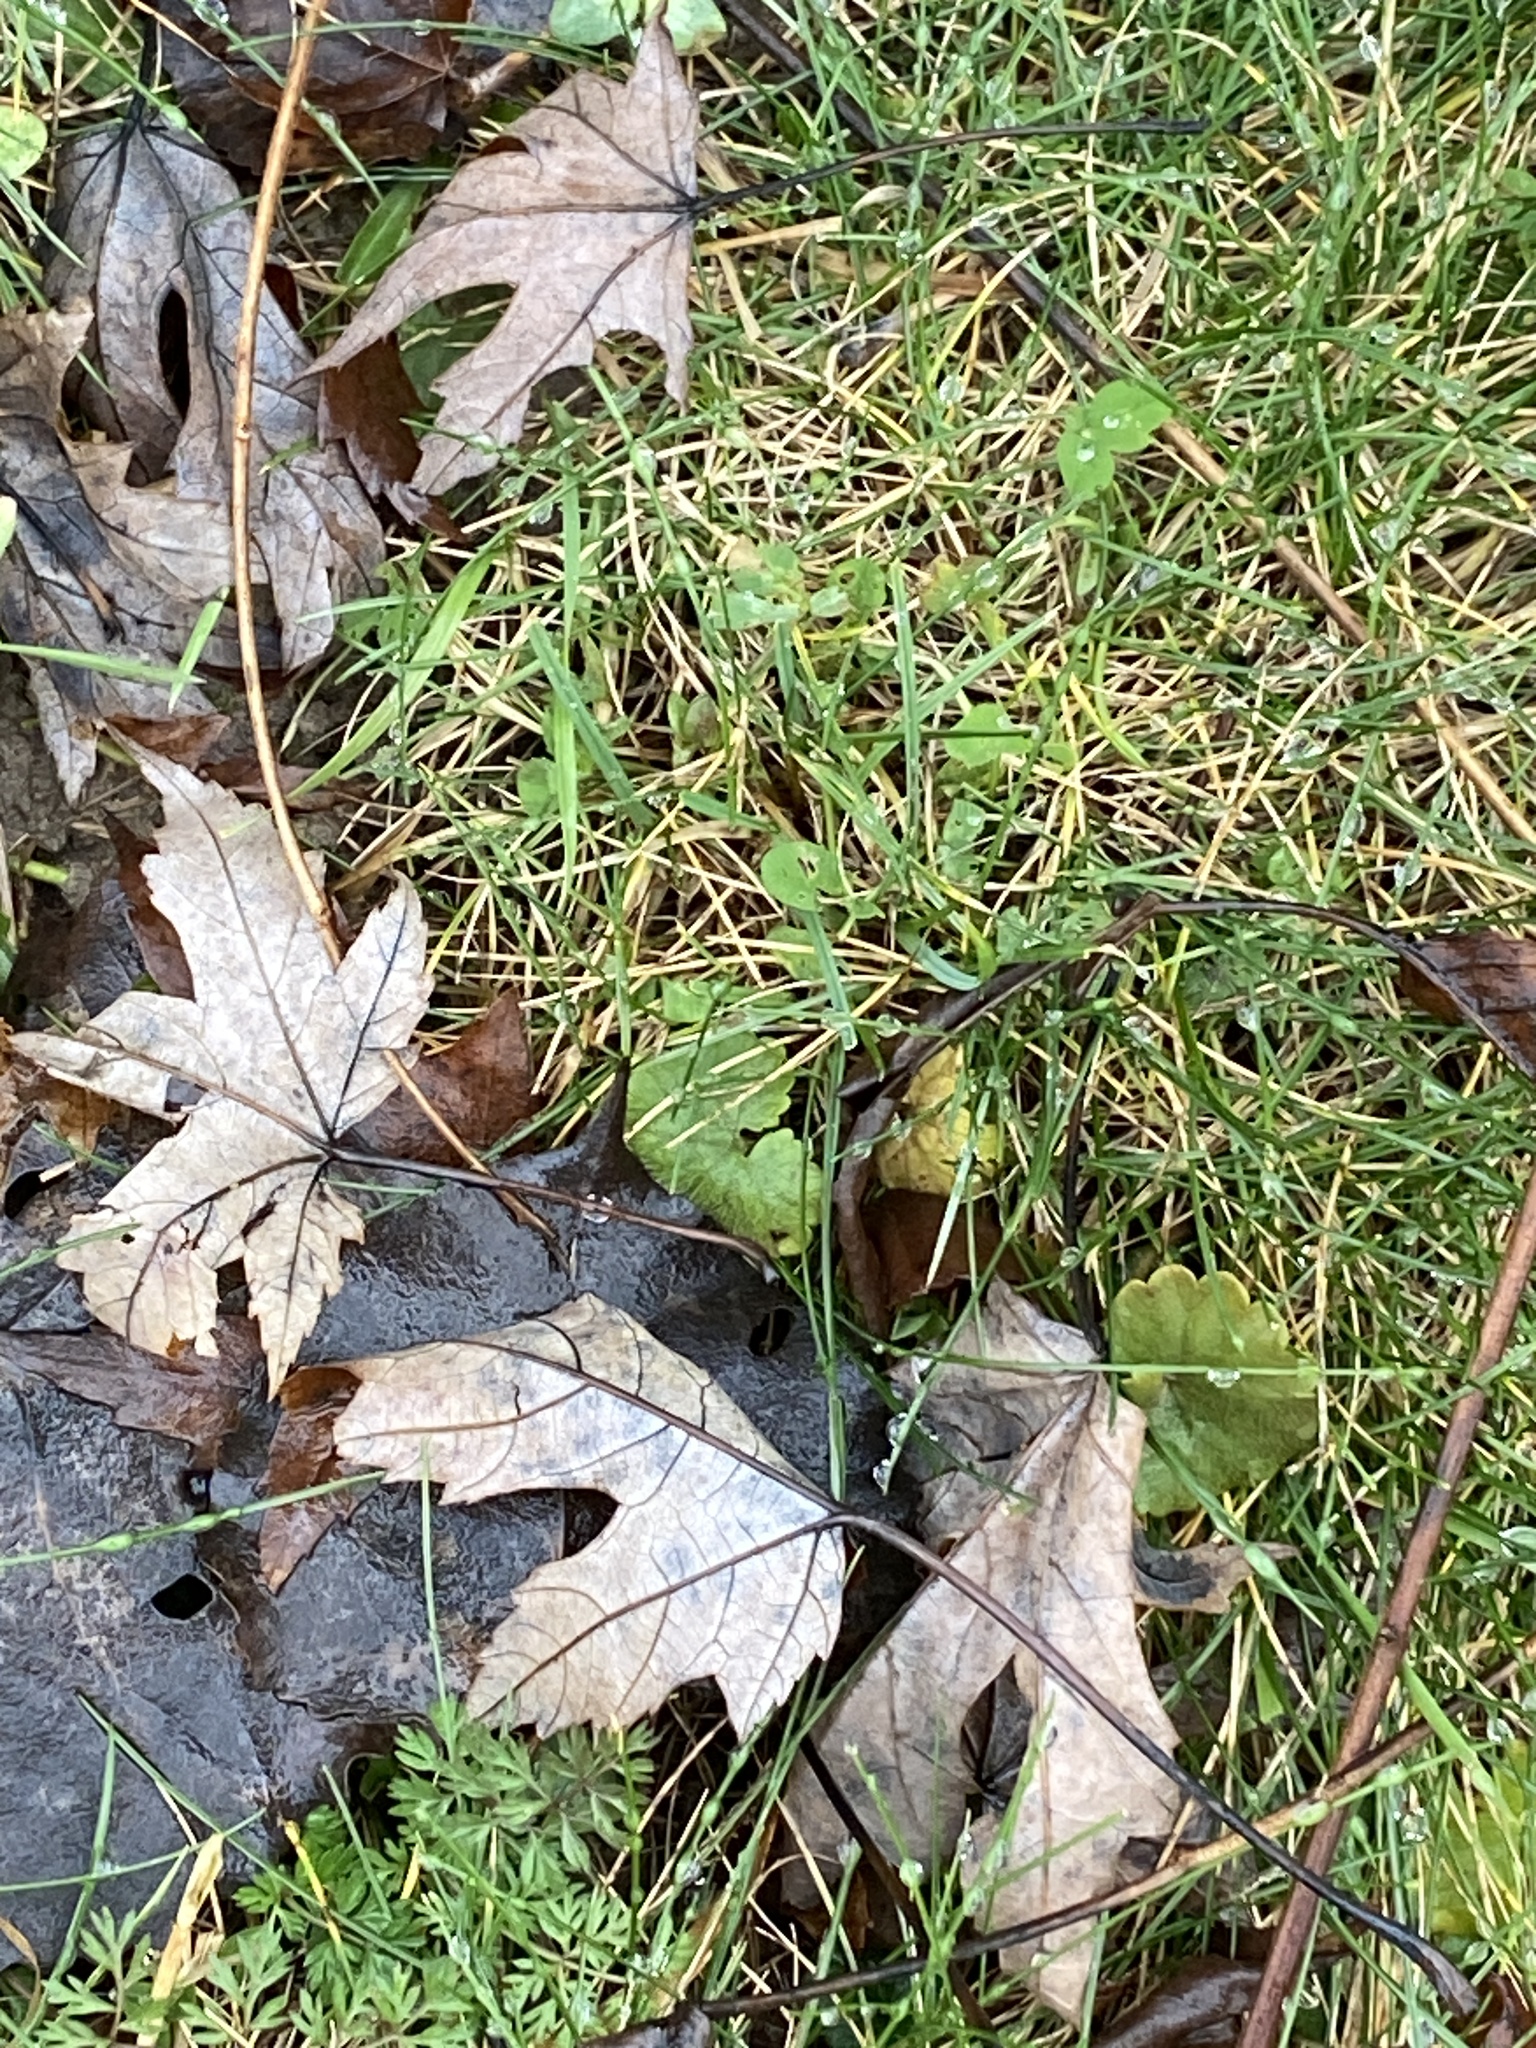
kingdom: Plantae
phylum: Tracheophyta
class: Magnoliopsida
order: Sapindales
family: Sapindaceae
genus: Acer
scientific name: Acer saccharinum
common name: Silver maple
